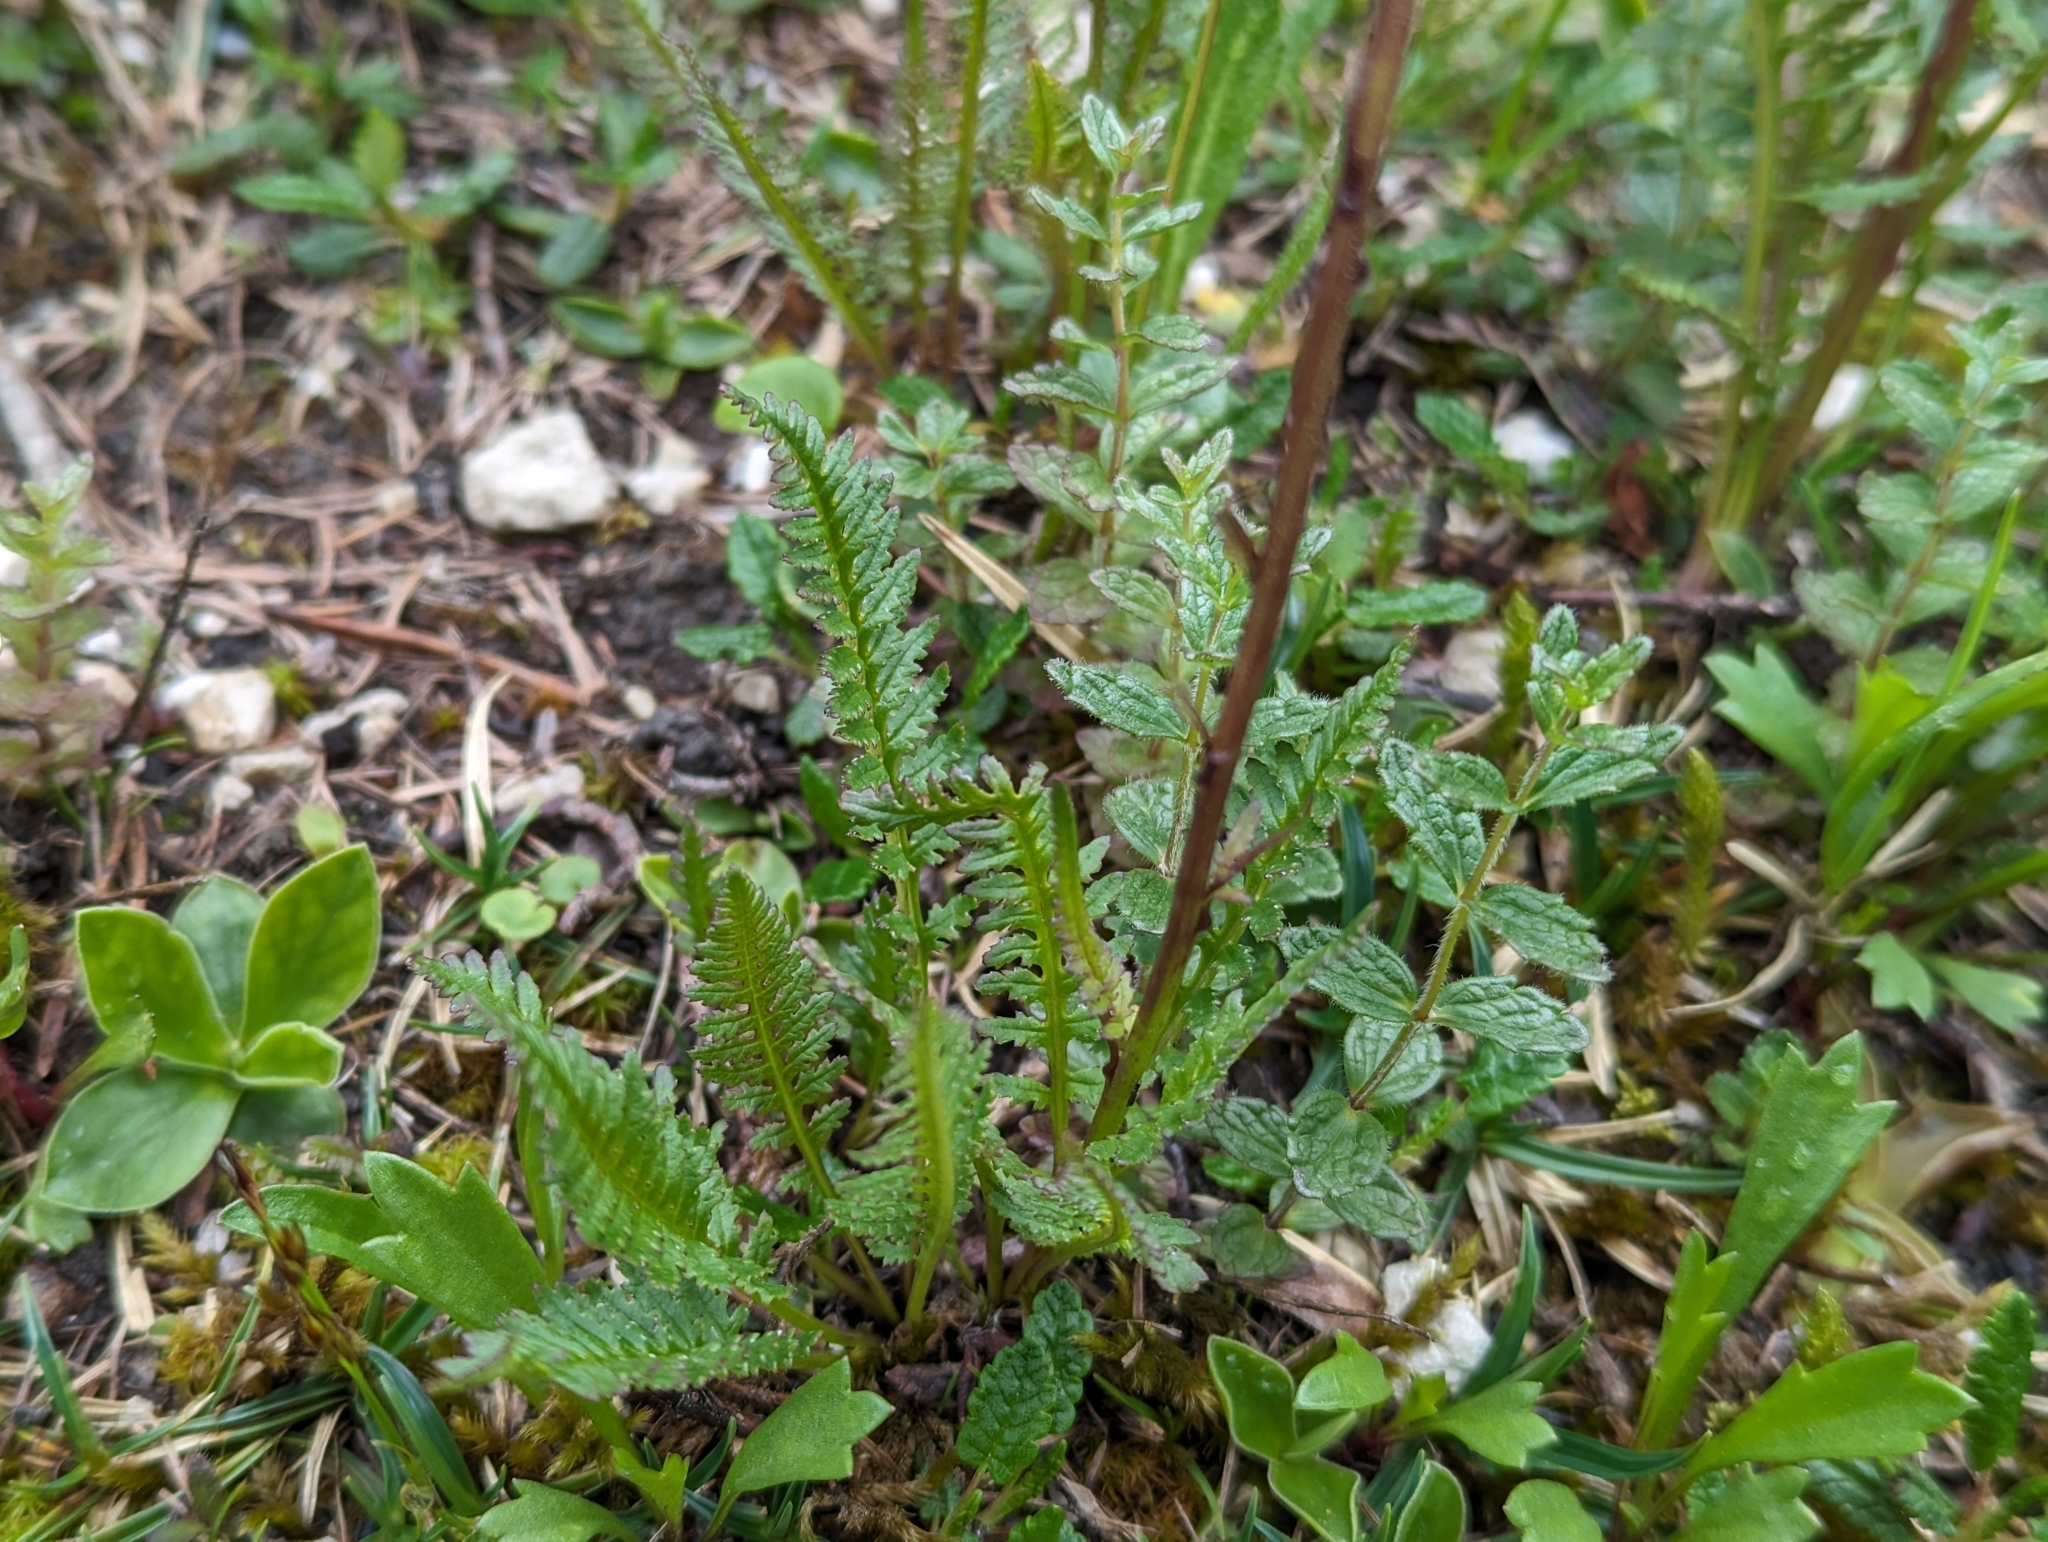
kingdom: Plantae
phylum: Tracheophyta
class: Magnoliopsida
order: Lamiales
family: Orobanchaceae
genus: Pedicularis
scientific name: Pedicularis rostratospicata
